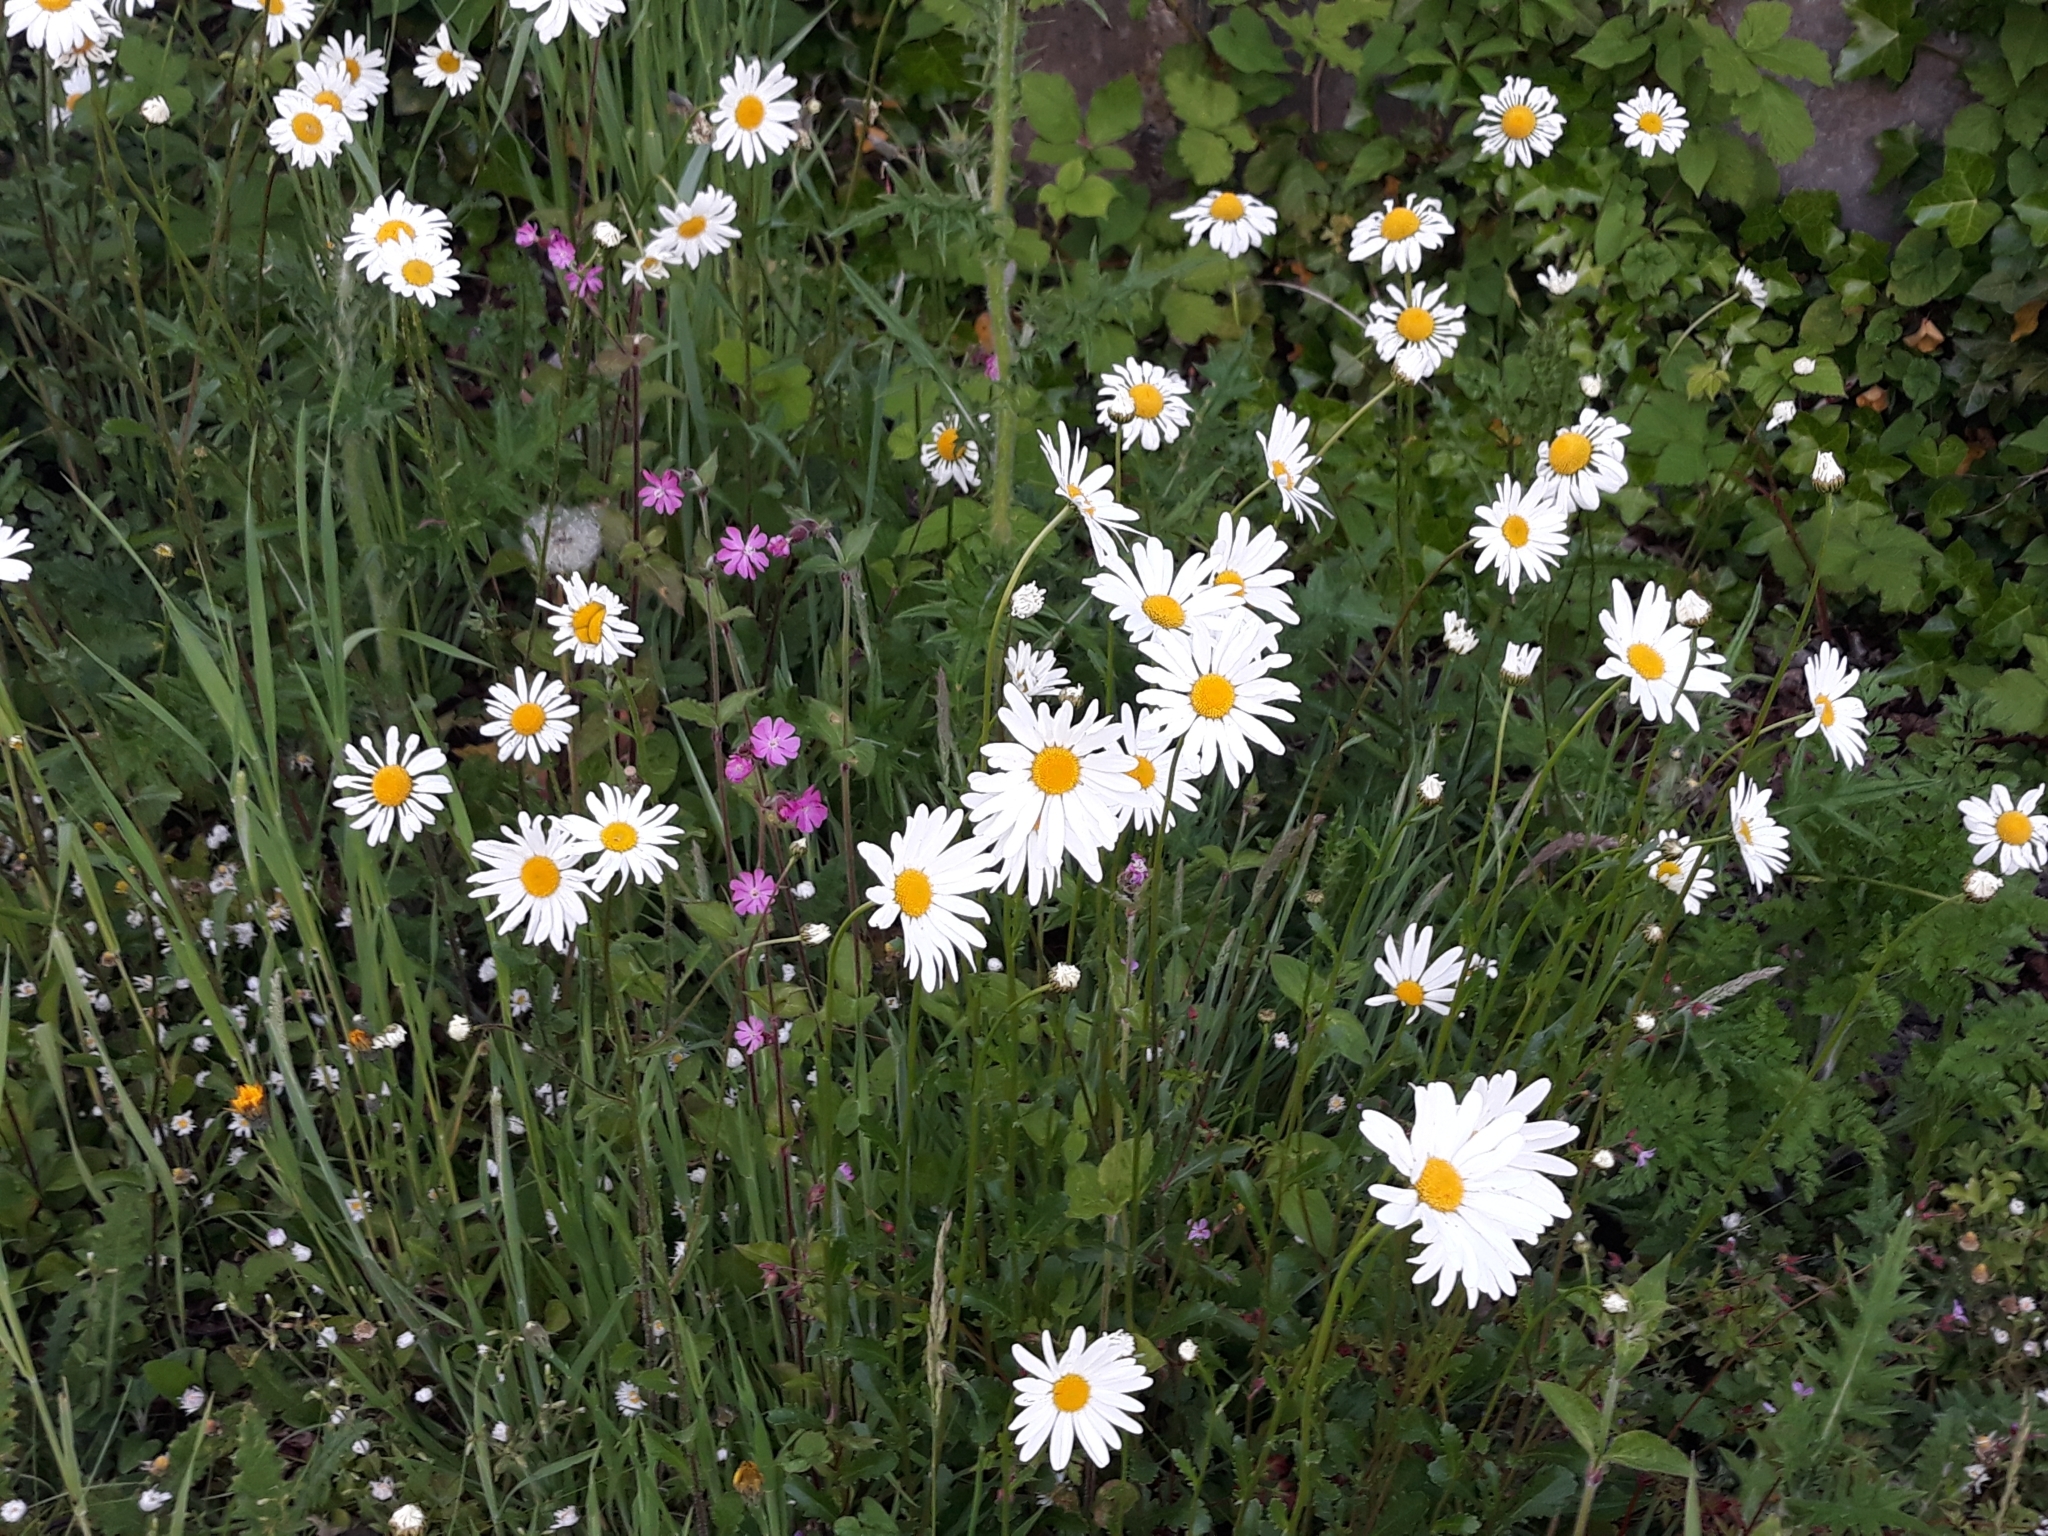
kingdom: Plantae
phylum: Tracheophyta
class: Magnoliopsida
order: Asterales
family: Asteraceae
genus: Leucanthemum
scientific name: Leucanthemum vulgare
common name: Oxeye daisy
